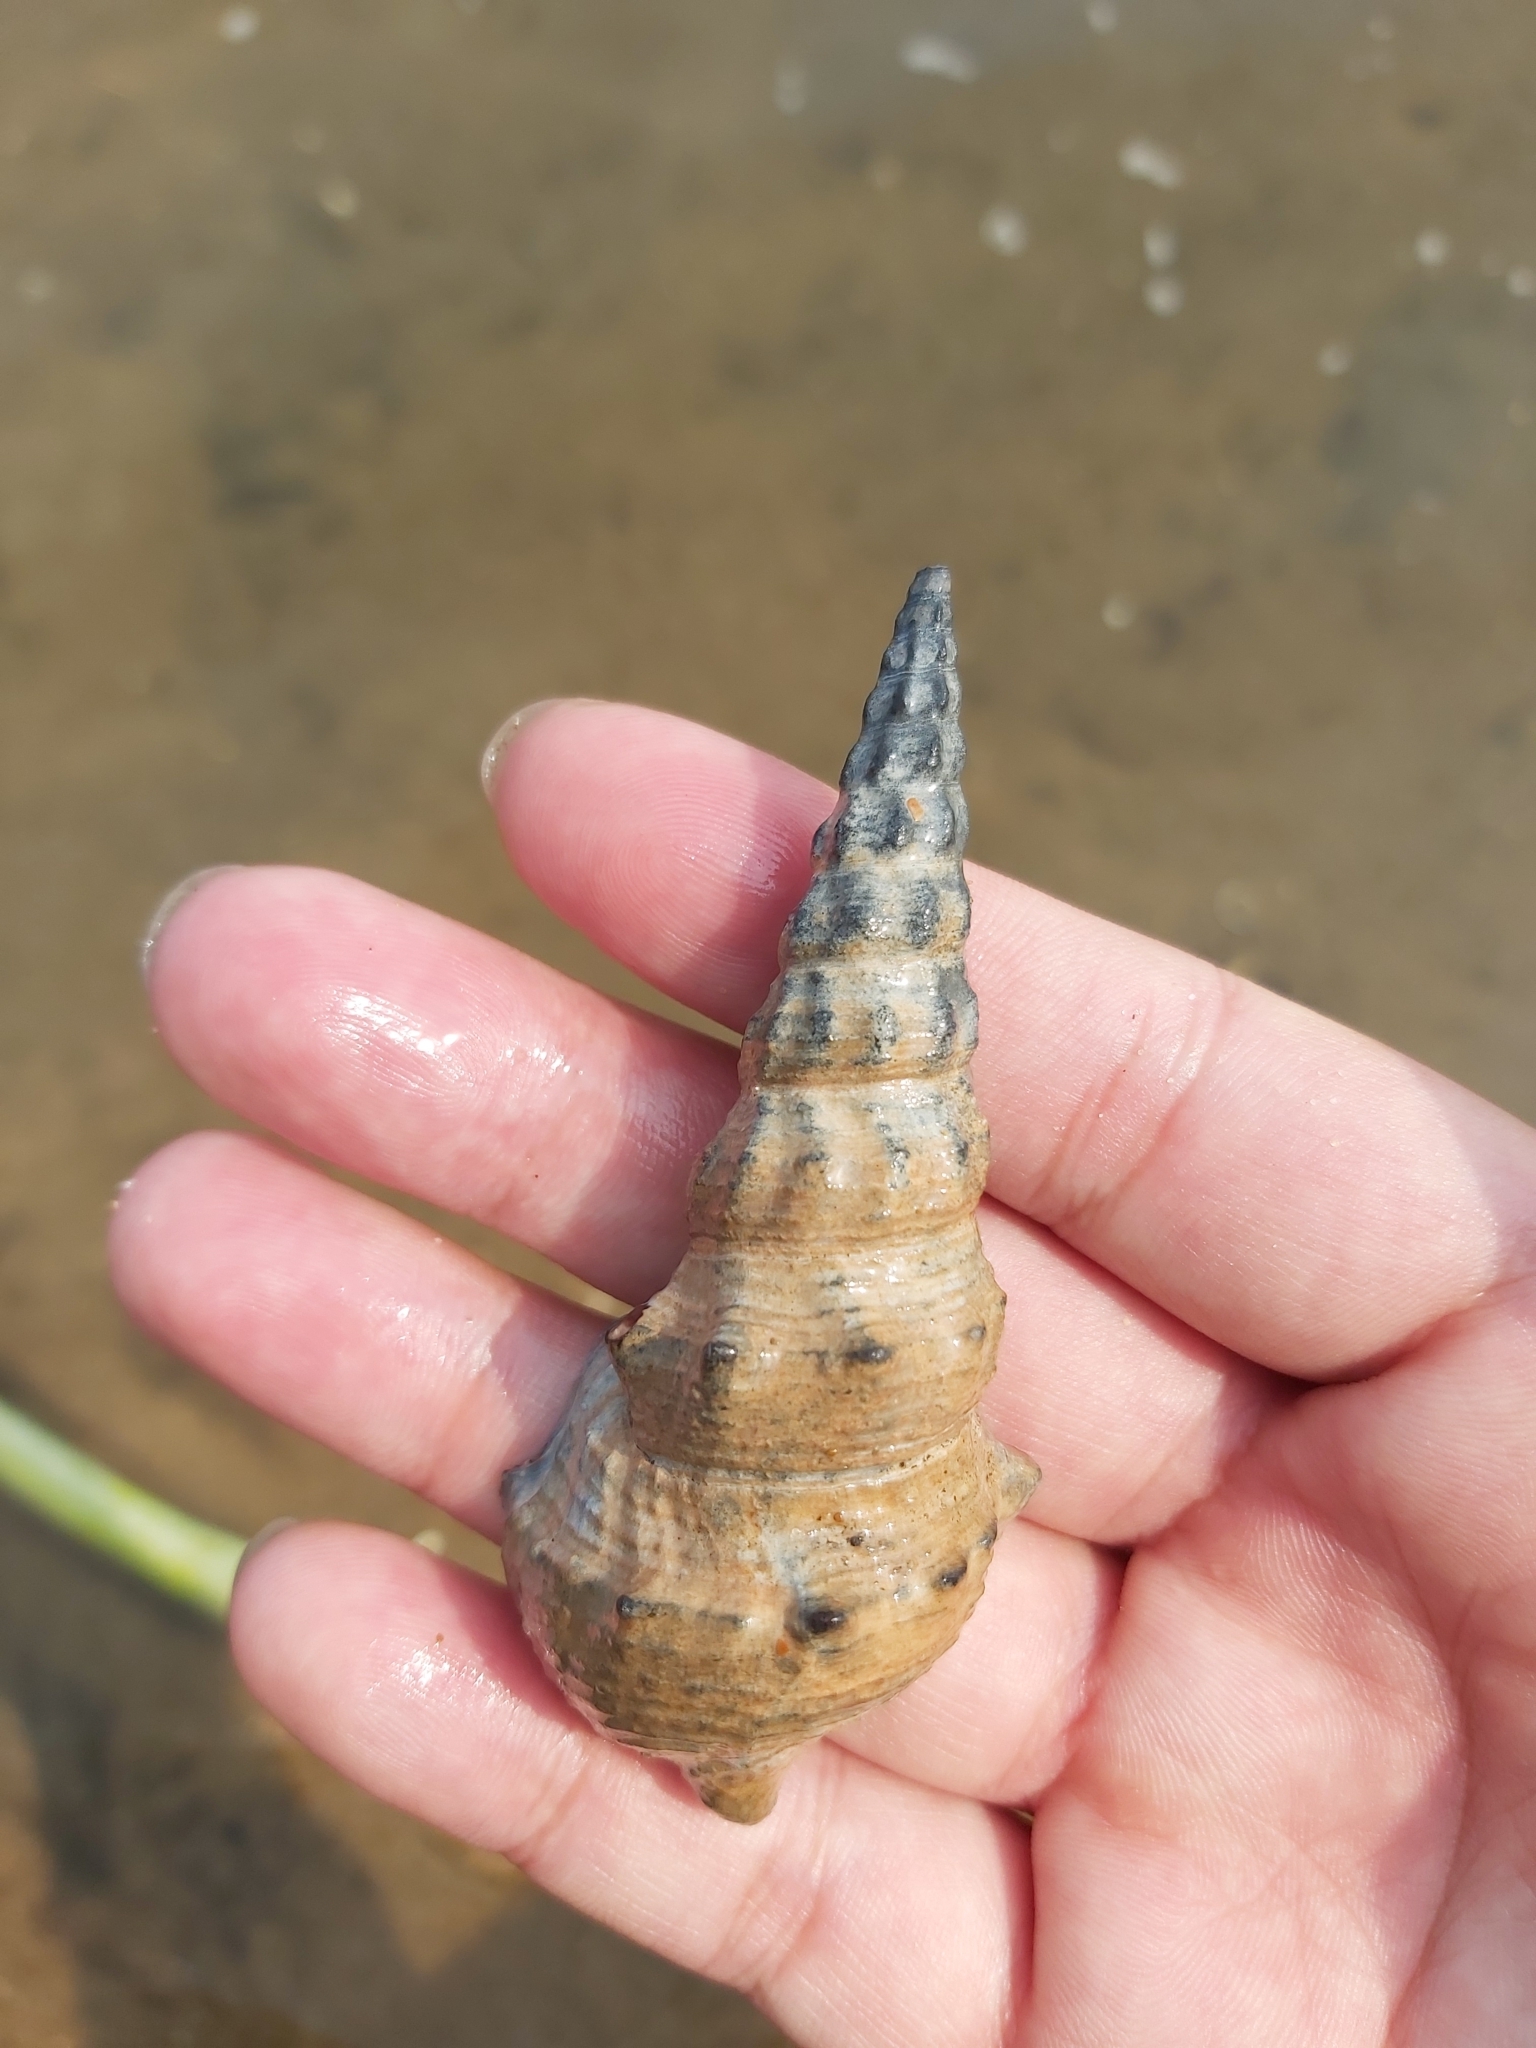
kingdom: Animalia
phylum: Mollusca
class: Gastropoda
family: Batillariidae
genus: Pyrazus
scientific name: Pyrazus ebeninus
